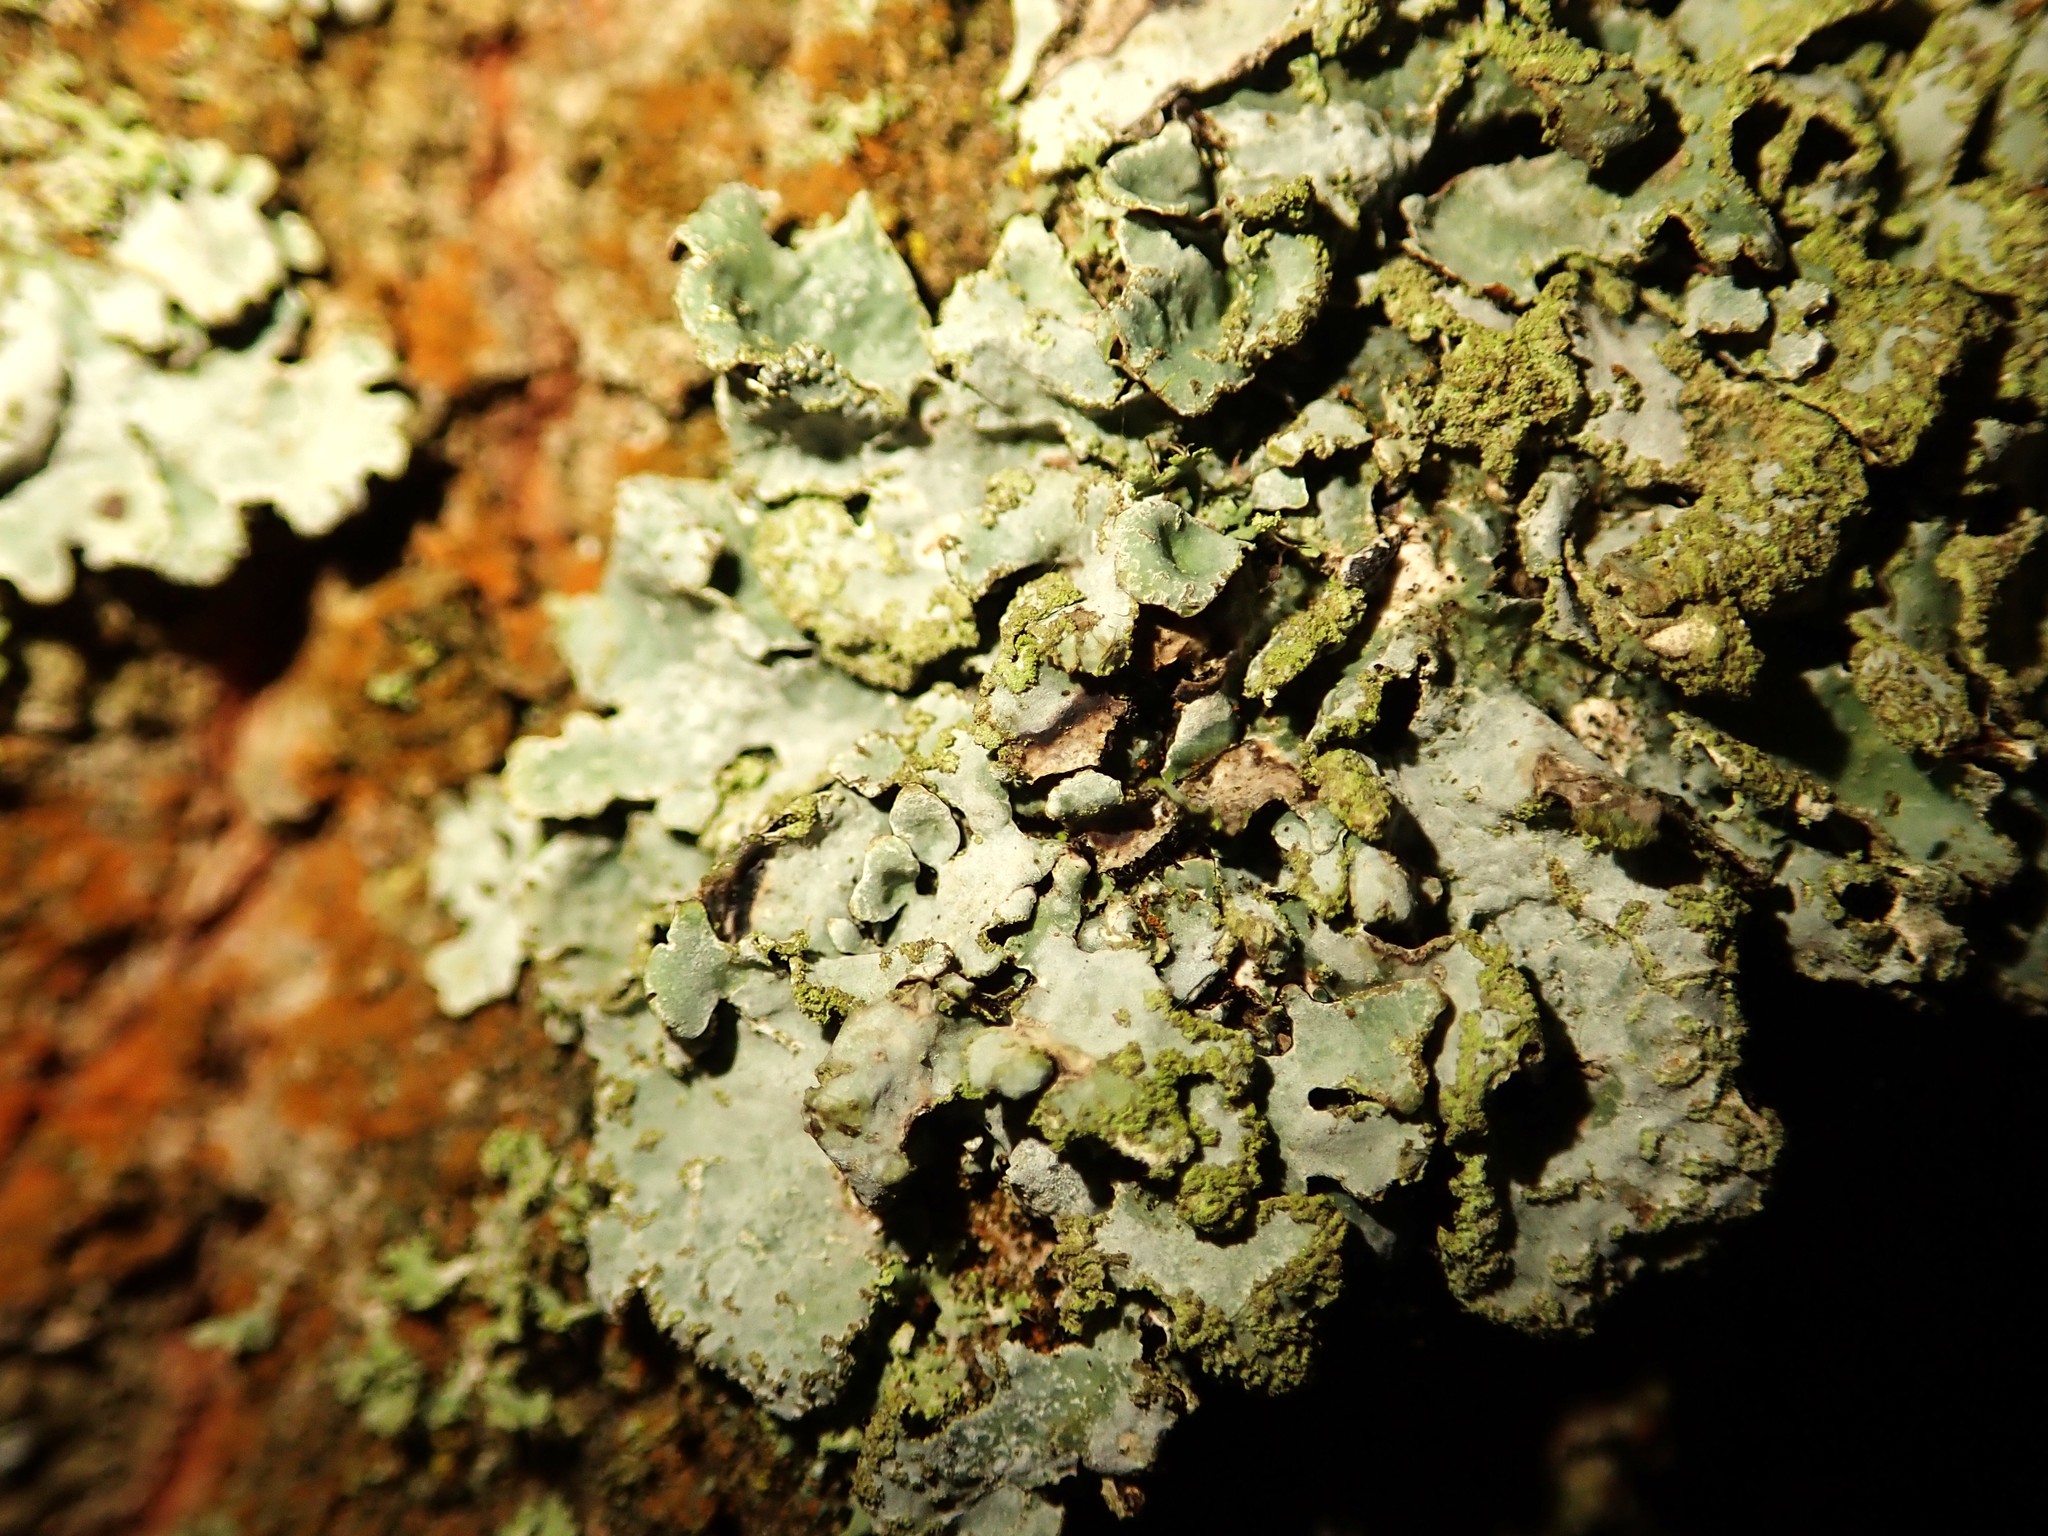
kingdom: Fungi
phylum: Ascomycota
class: Lecanoromycetes
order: Lecanorales
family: Parmeliaceae
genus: Parmelia
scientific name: Parmelia sulcata
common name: Netted shield lichen
